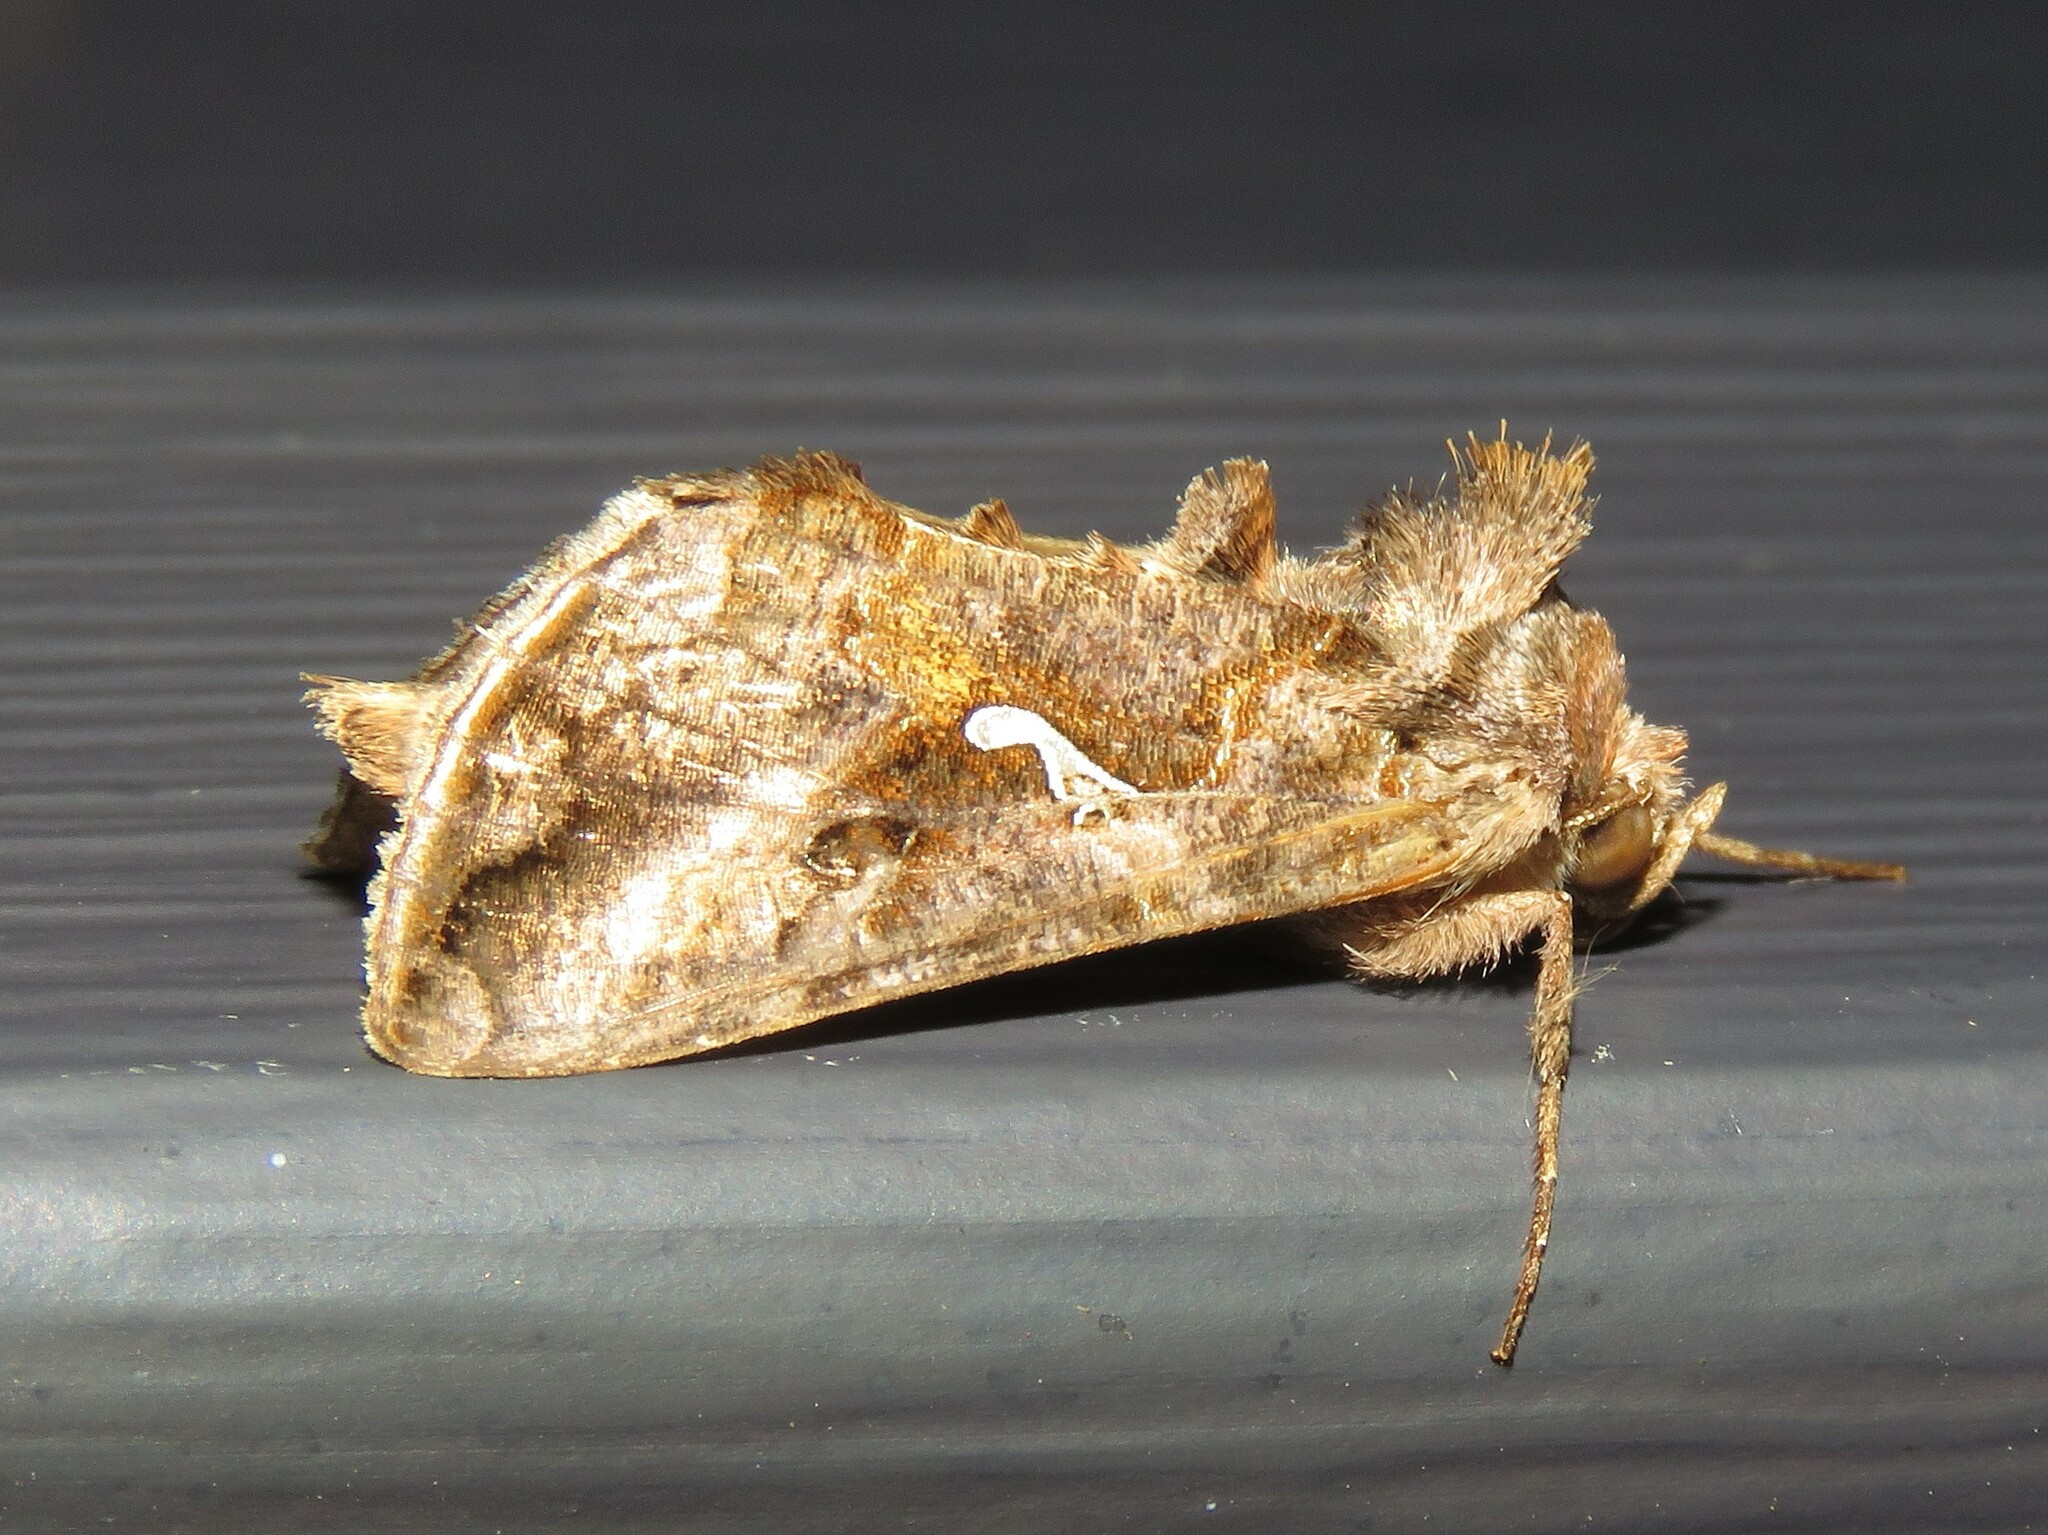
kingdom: Animalia
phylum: Arthropoda
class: Insecta
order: Lepidoptera
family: Noctuidae
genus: Autographa
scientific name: Autographa precationis
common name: Common looper moth
